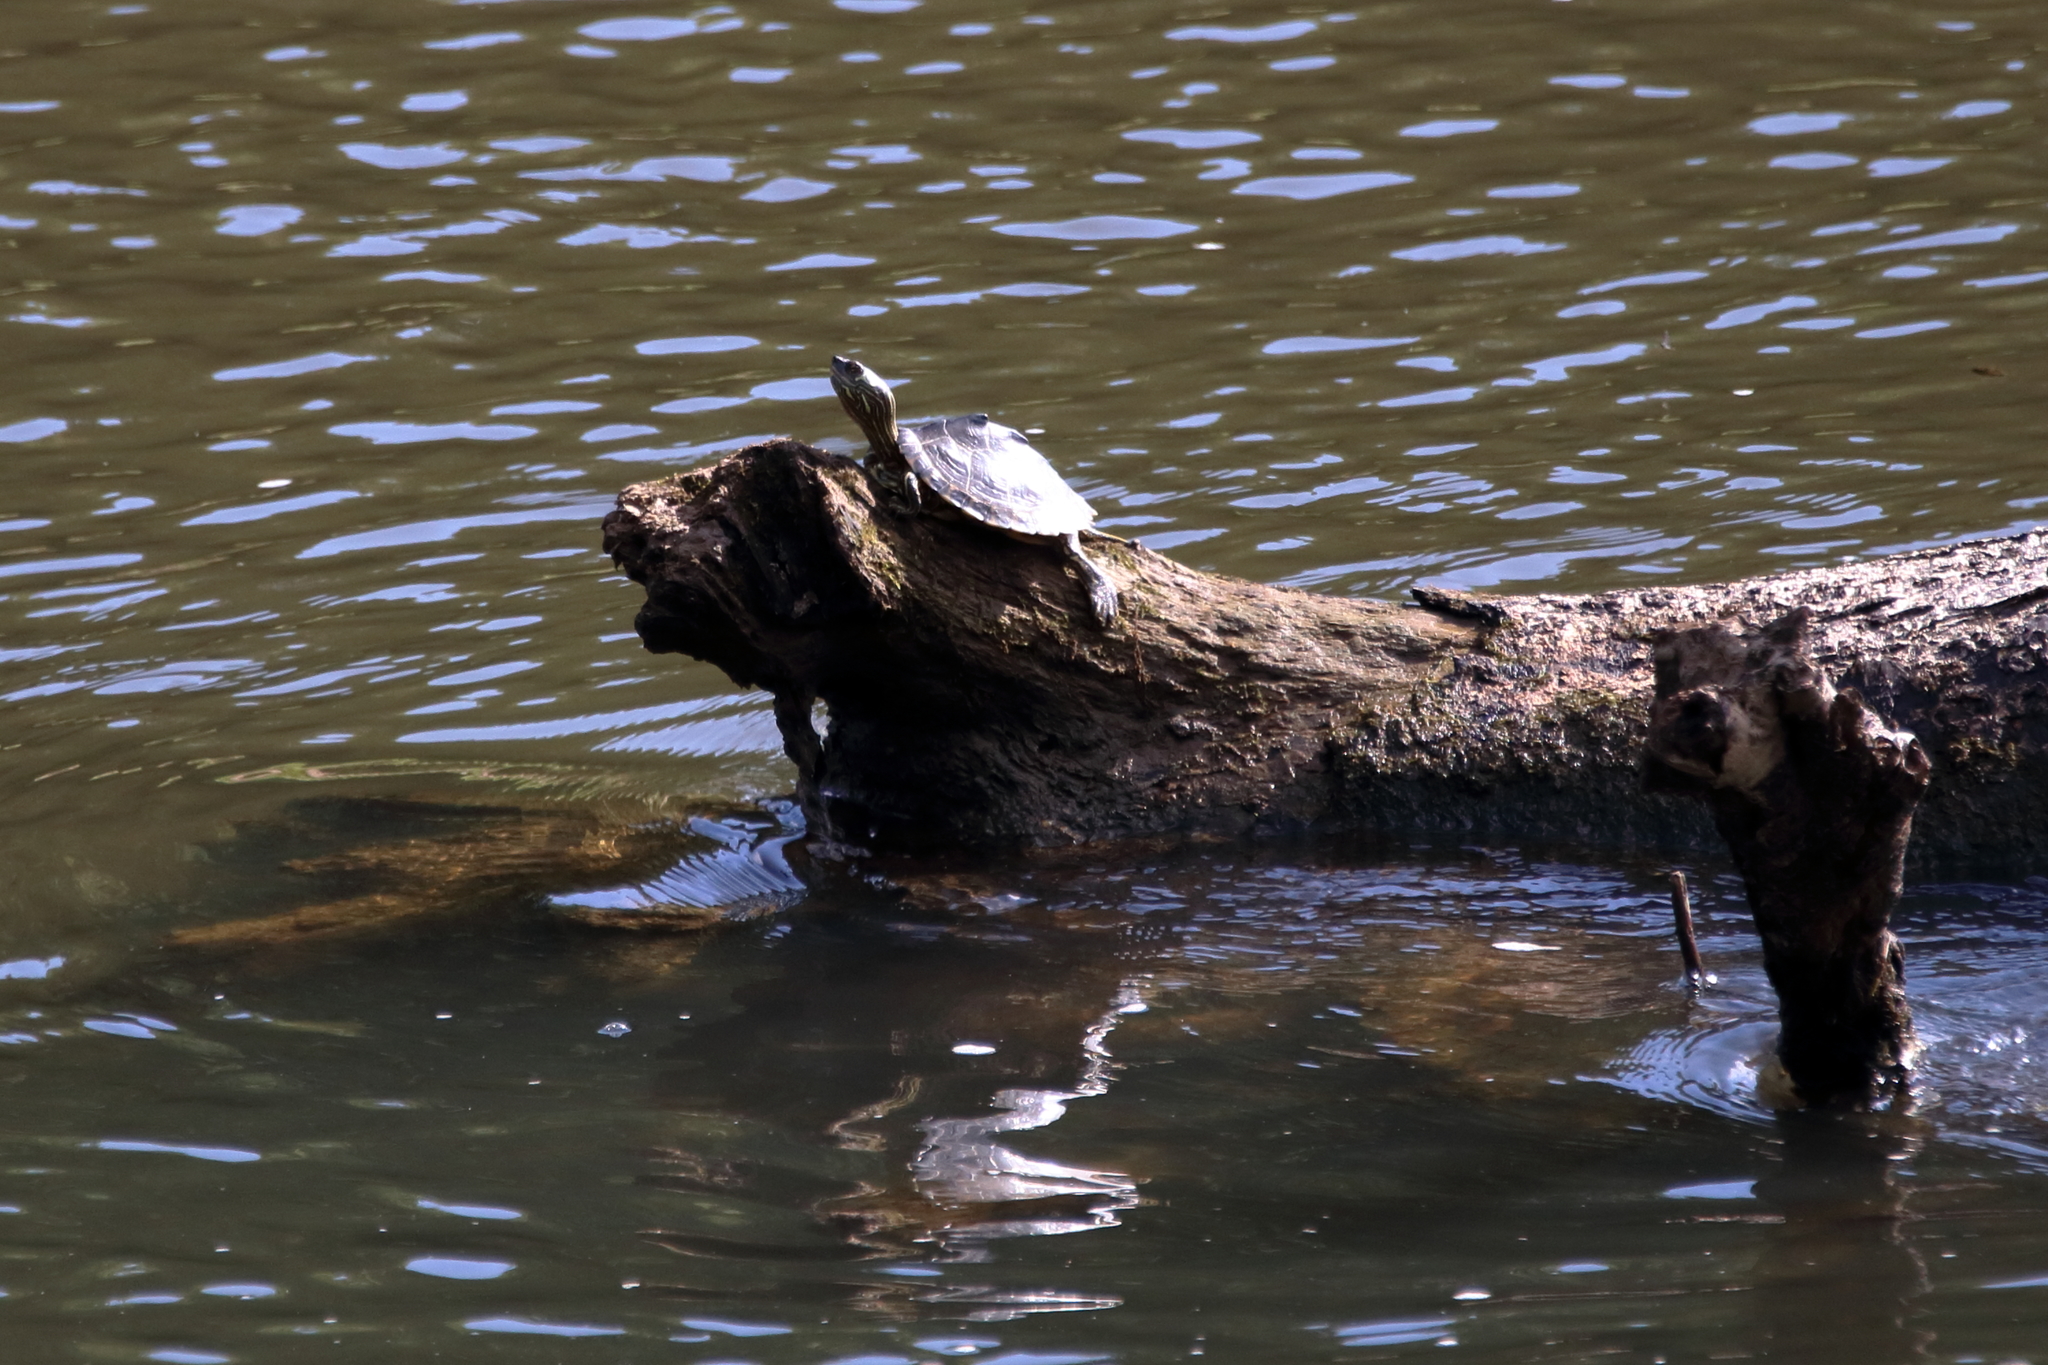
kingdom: Animalia
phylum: Chordata
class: Testudines
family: Emydidae
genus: Graptemys
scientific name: Graptemys pearlensis
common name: Pearl river map turtle
